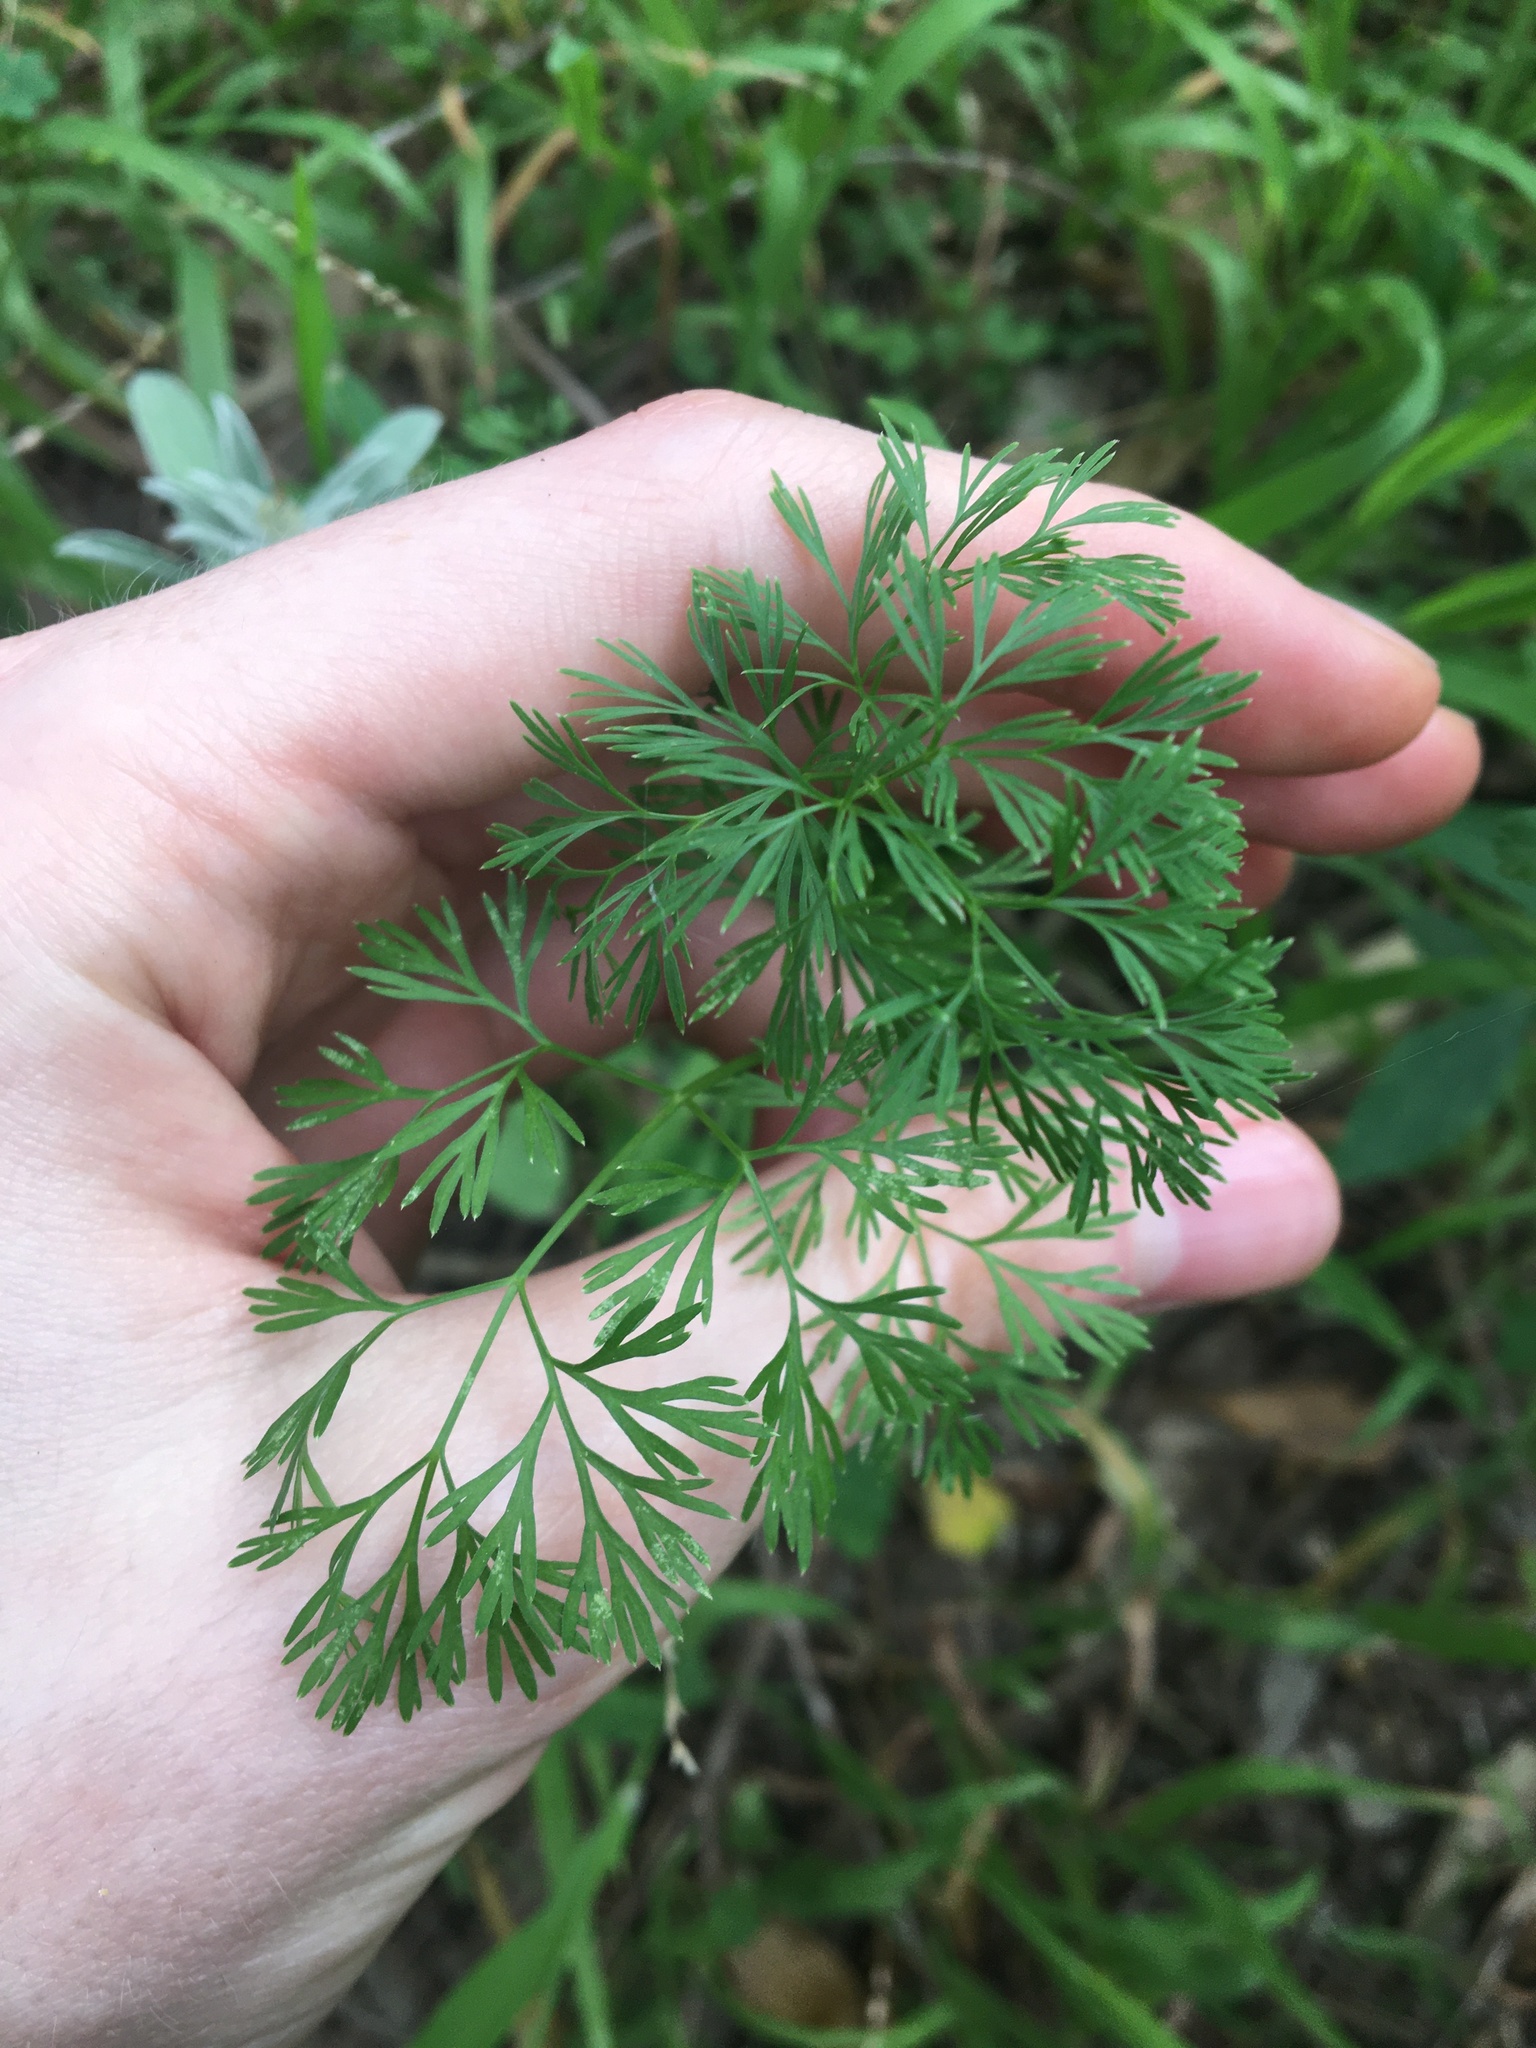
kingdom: Plantae
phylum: Tracheophyta
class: Magnoliopsida
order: Apiales
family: Apiaceae
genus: Cyclospermum
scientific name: Cyclospermum leptophyllum
